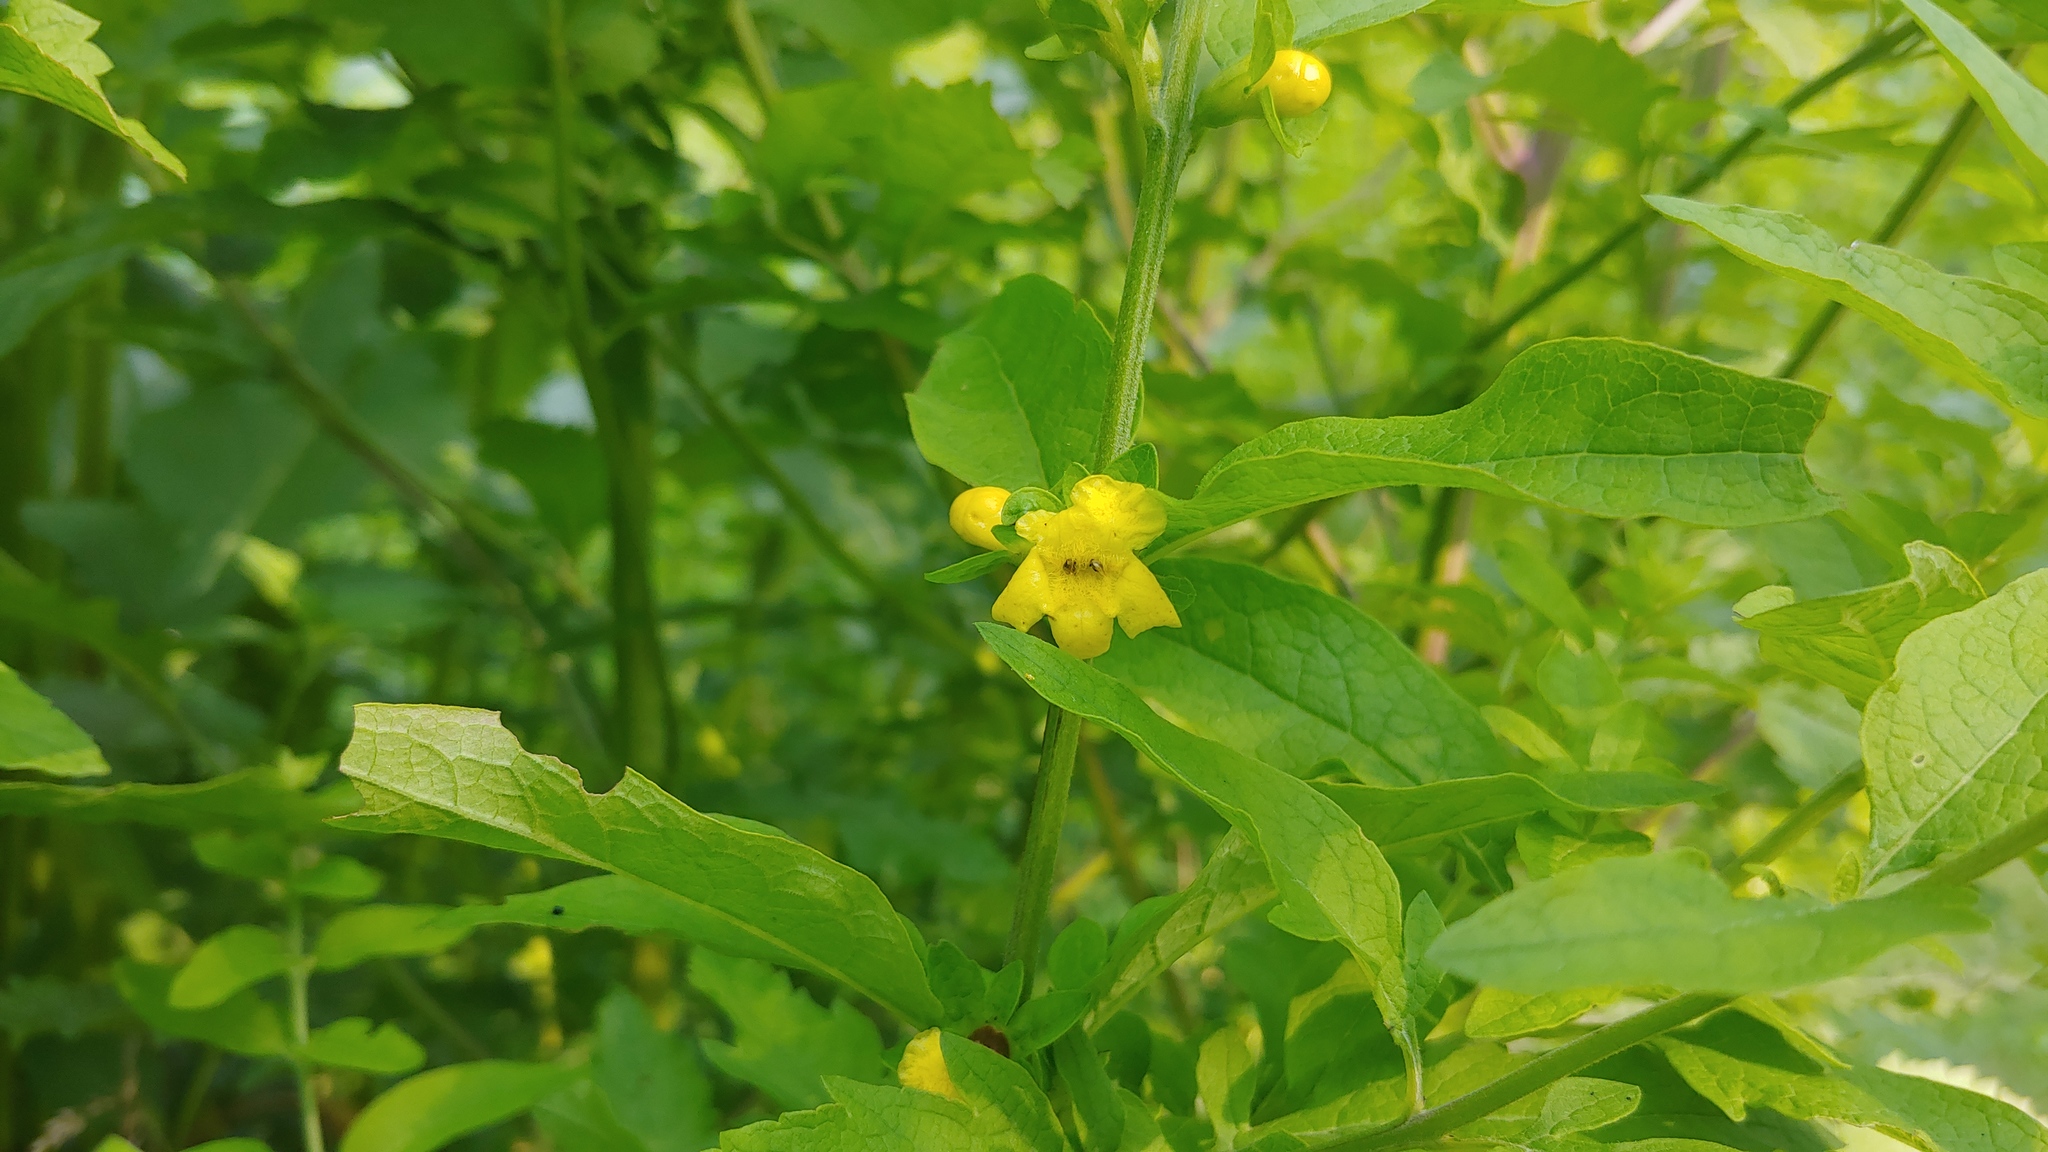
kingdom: Plantae
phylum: Tracheophyta
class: Magnoliopsida
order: Lamiales
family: Orobanchaceae
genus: Dasistoma
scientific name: Dasistoma macrophyllum
